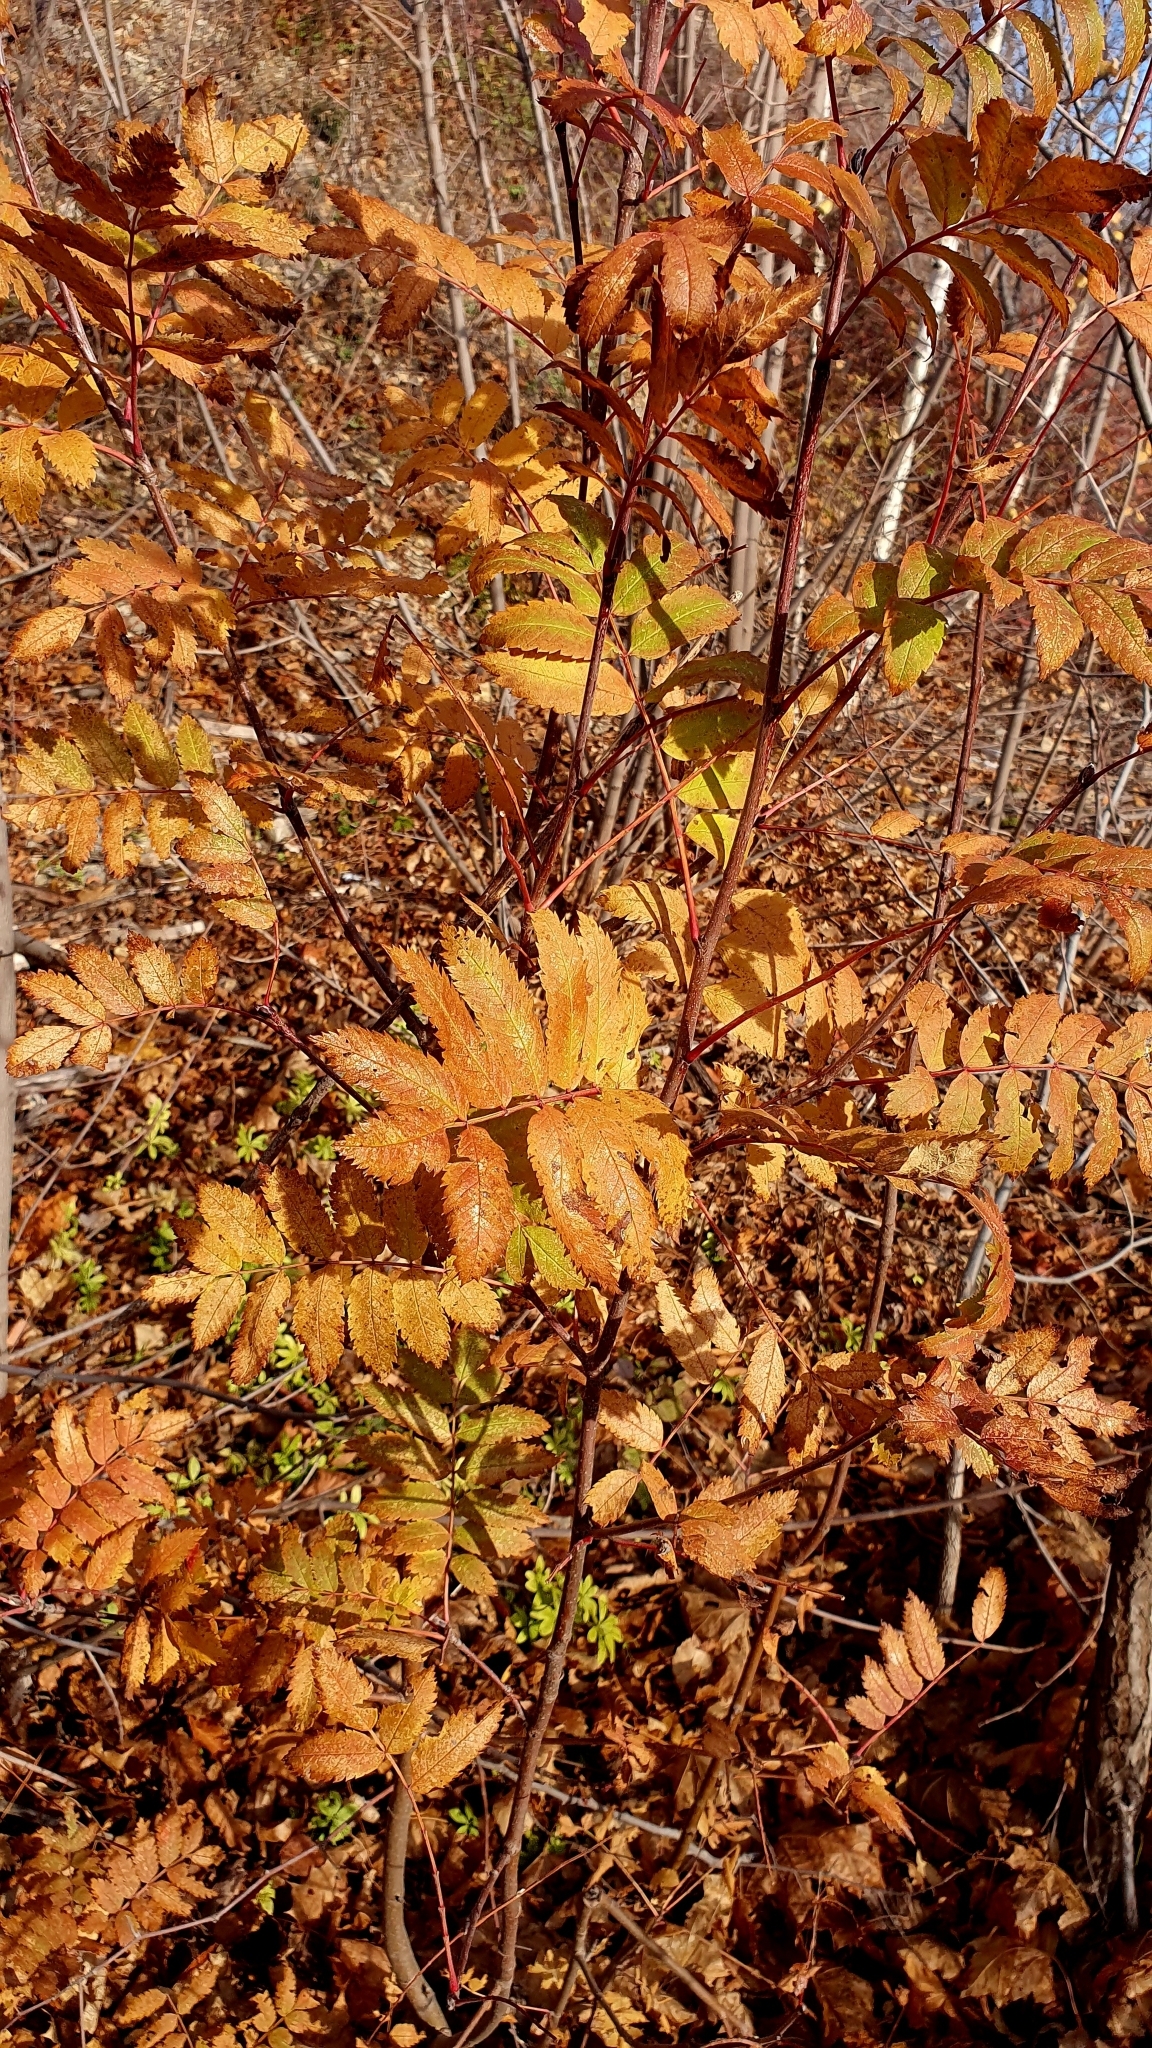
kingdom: Plantae
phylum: Tracheophyta
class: Magnoliopsida
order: Rosales
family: Rosaceae
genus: Sorbus
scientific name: Sorbus aucuparia
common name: Rowan
